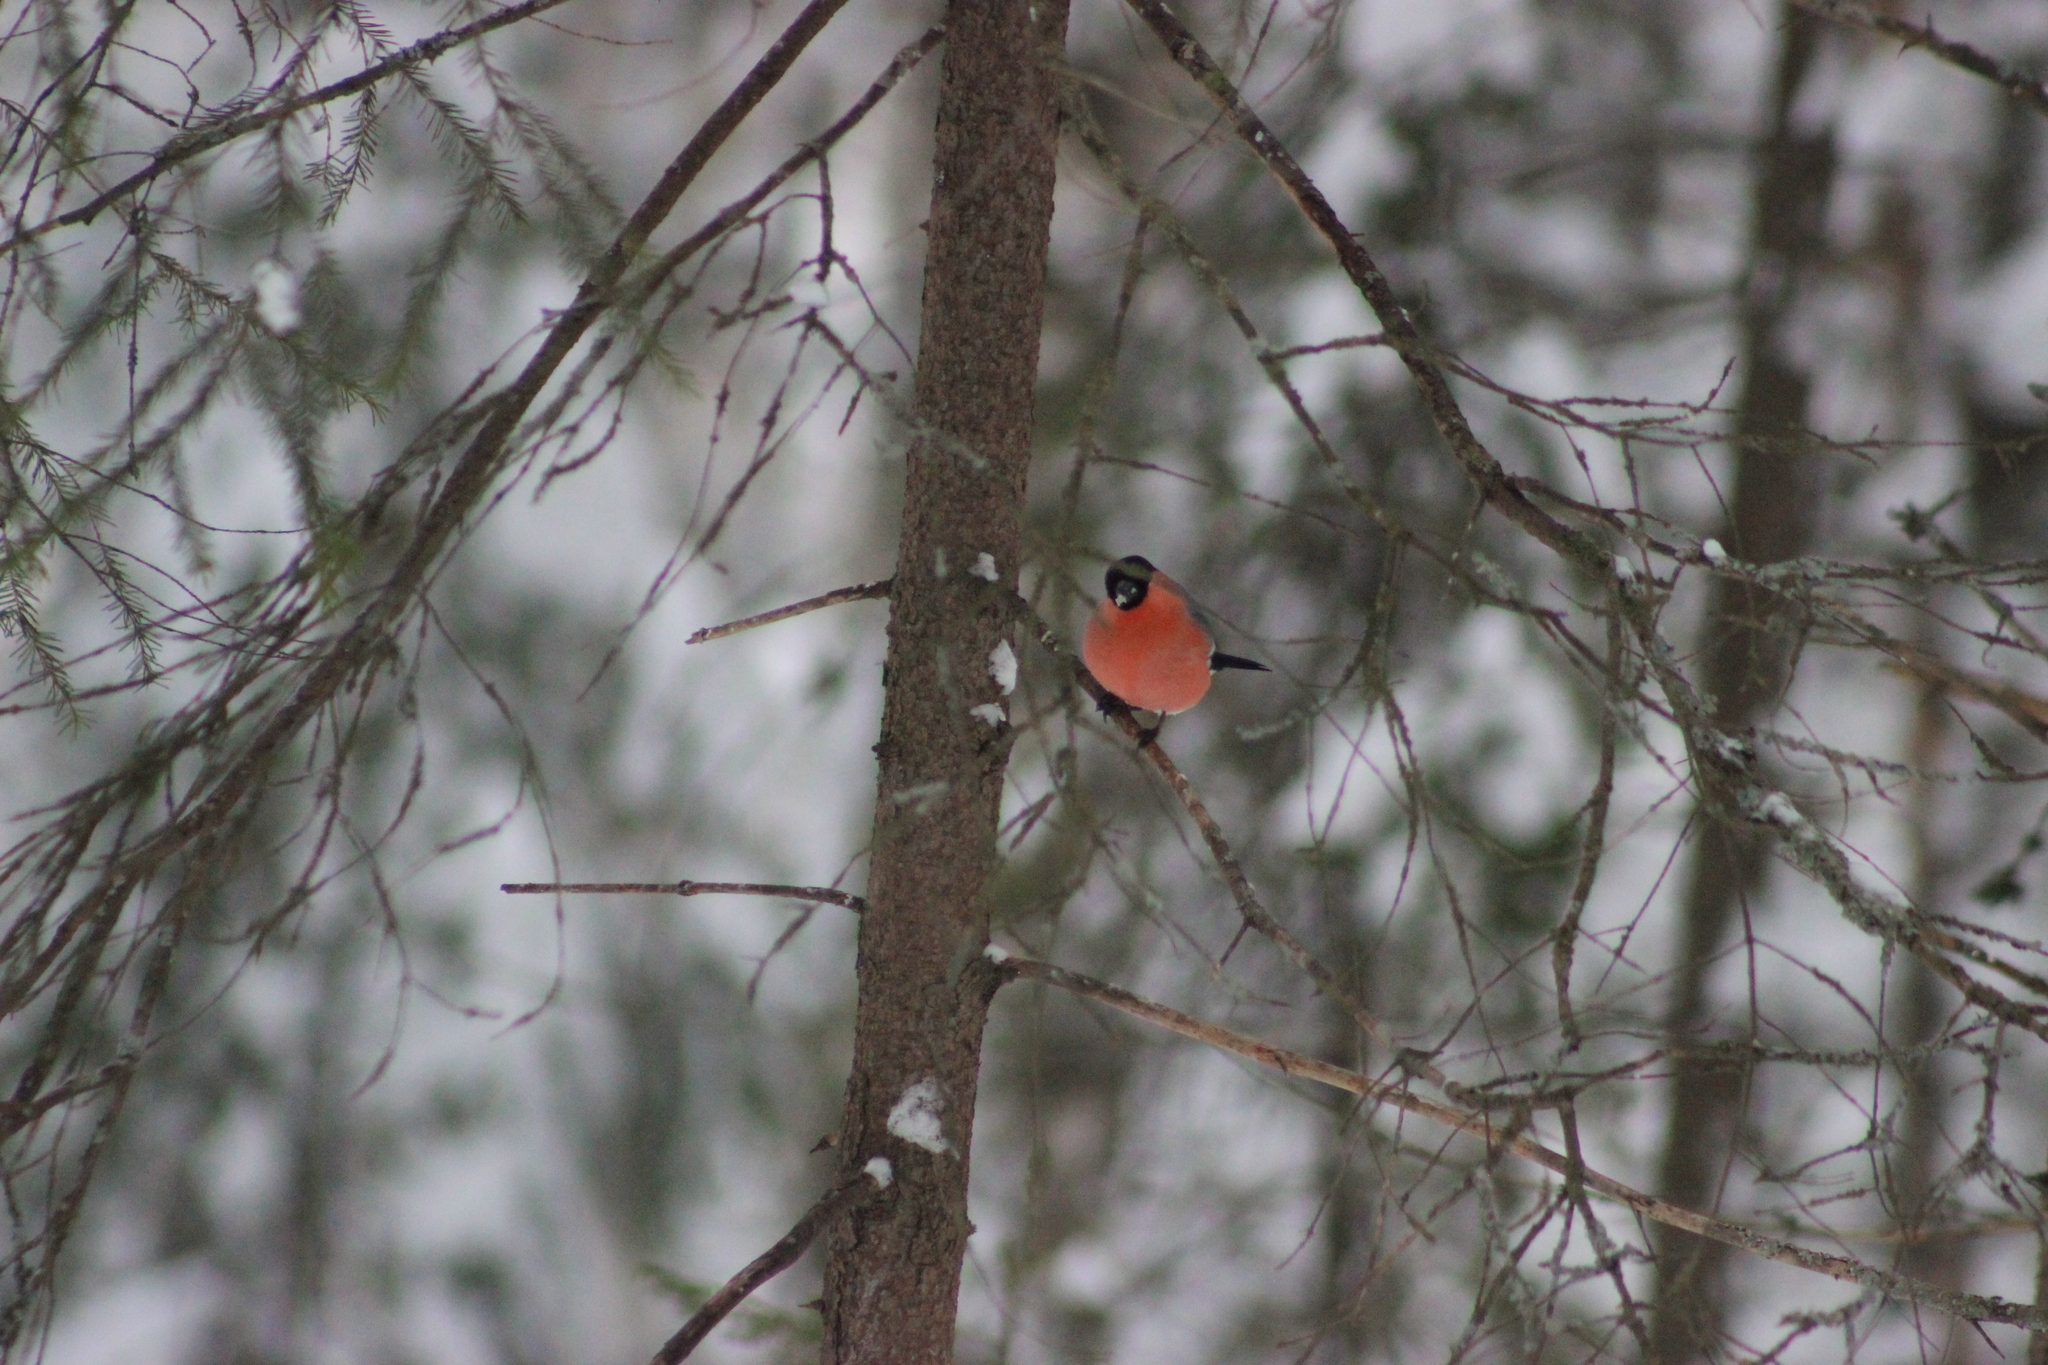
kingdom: Animalia
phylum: Chordata
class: Aves
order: Passeriformes
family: Fringillidae
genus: Pyrrhula
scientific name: Pyrrhula pyrrhula
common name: Eurasian bullfinch
